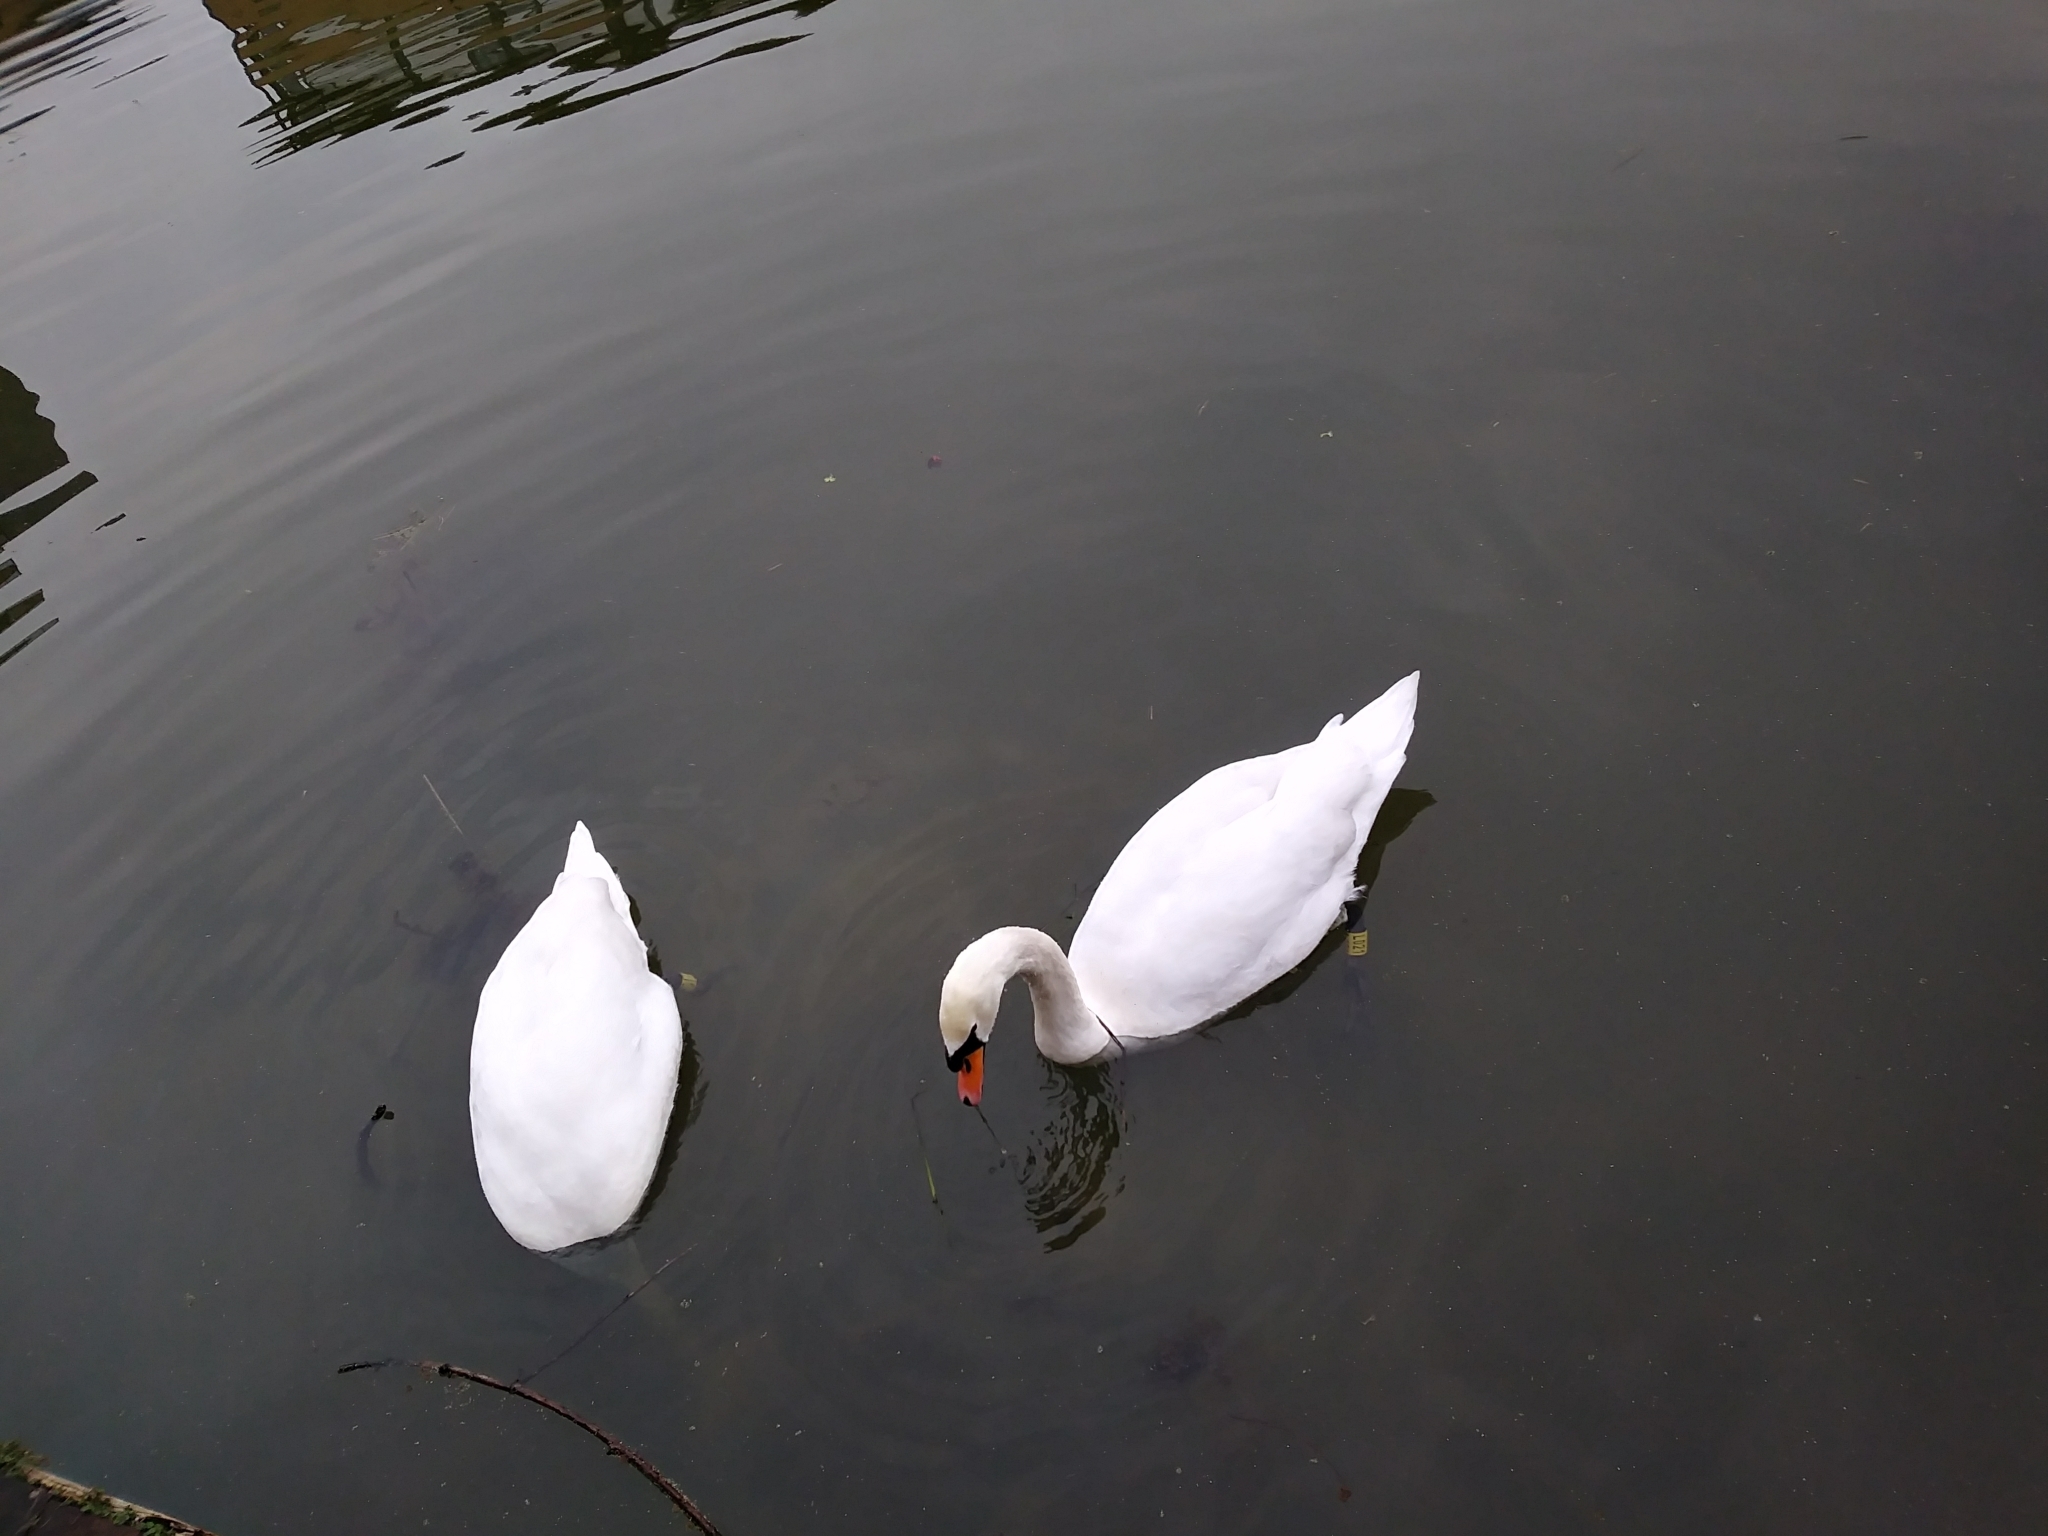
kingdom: Animalia
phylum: Chordata
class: Aves
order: Anseriformes
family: Anatidae
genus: Cygnus
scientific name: Cygnus olor
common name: Mute swan
